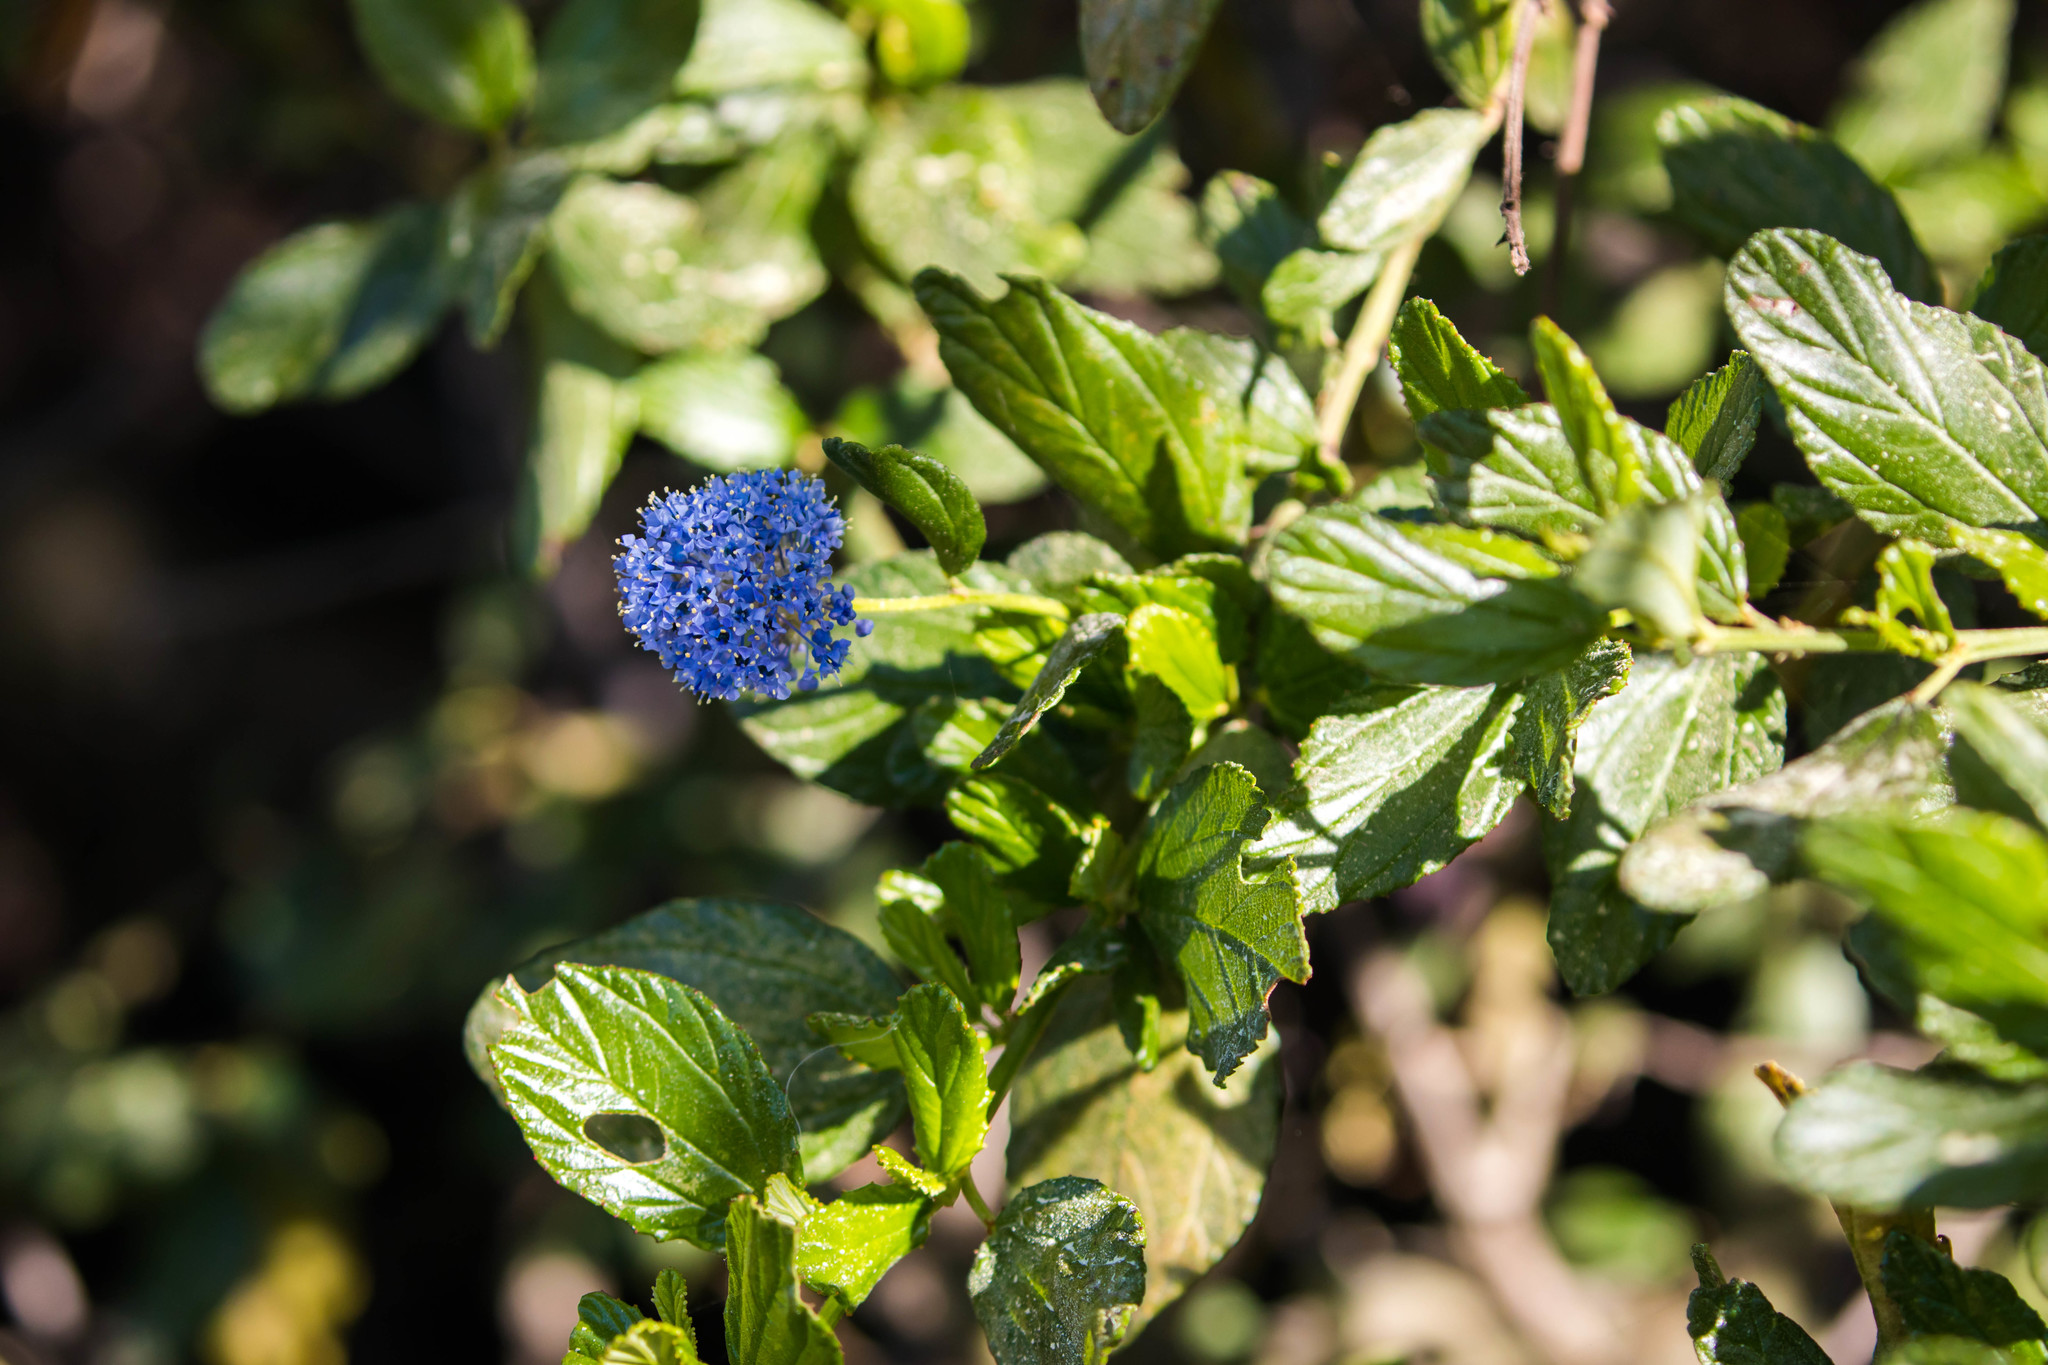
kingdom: Plantae
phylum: Tracheophyta
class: Magnoliopsida
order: Rosales
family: Rhamnaceae
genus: Ceanothus
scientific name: Ceanothus thyrsiflorus
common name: California-lilac
